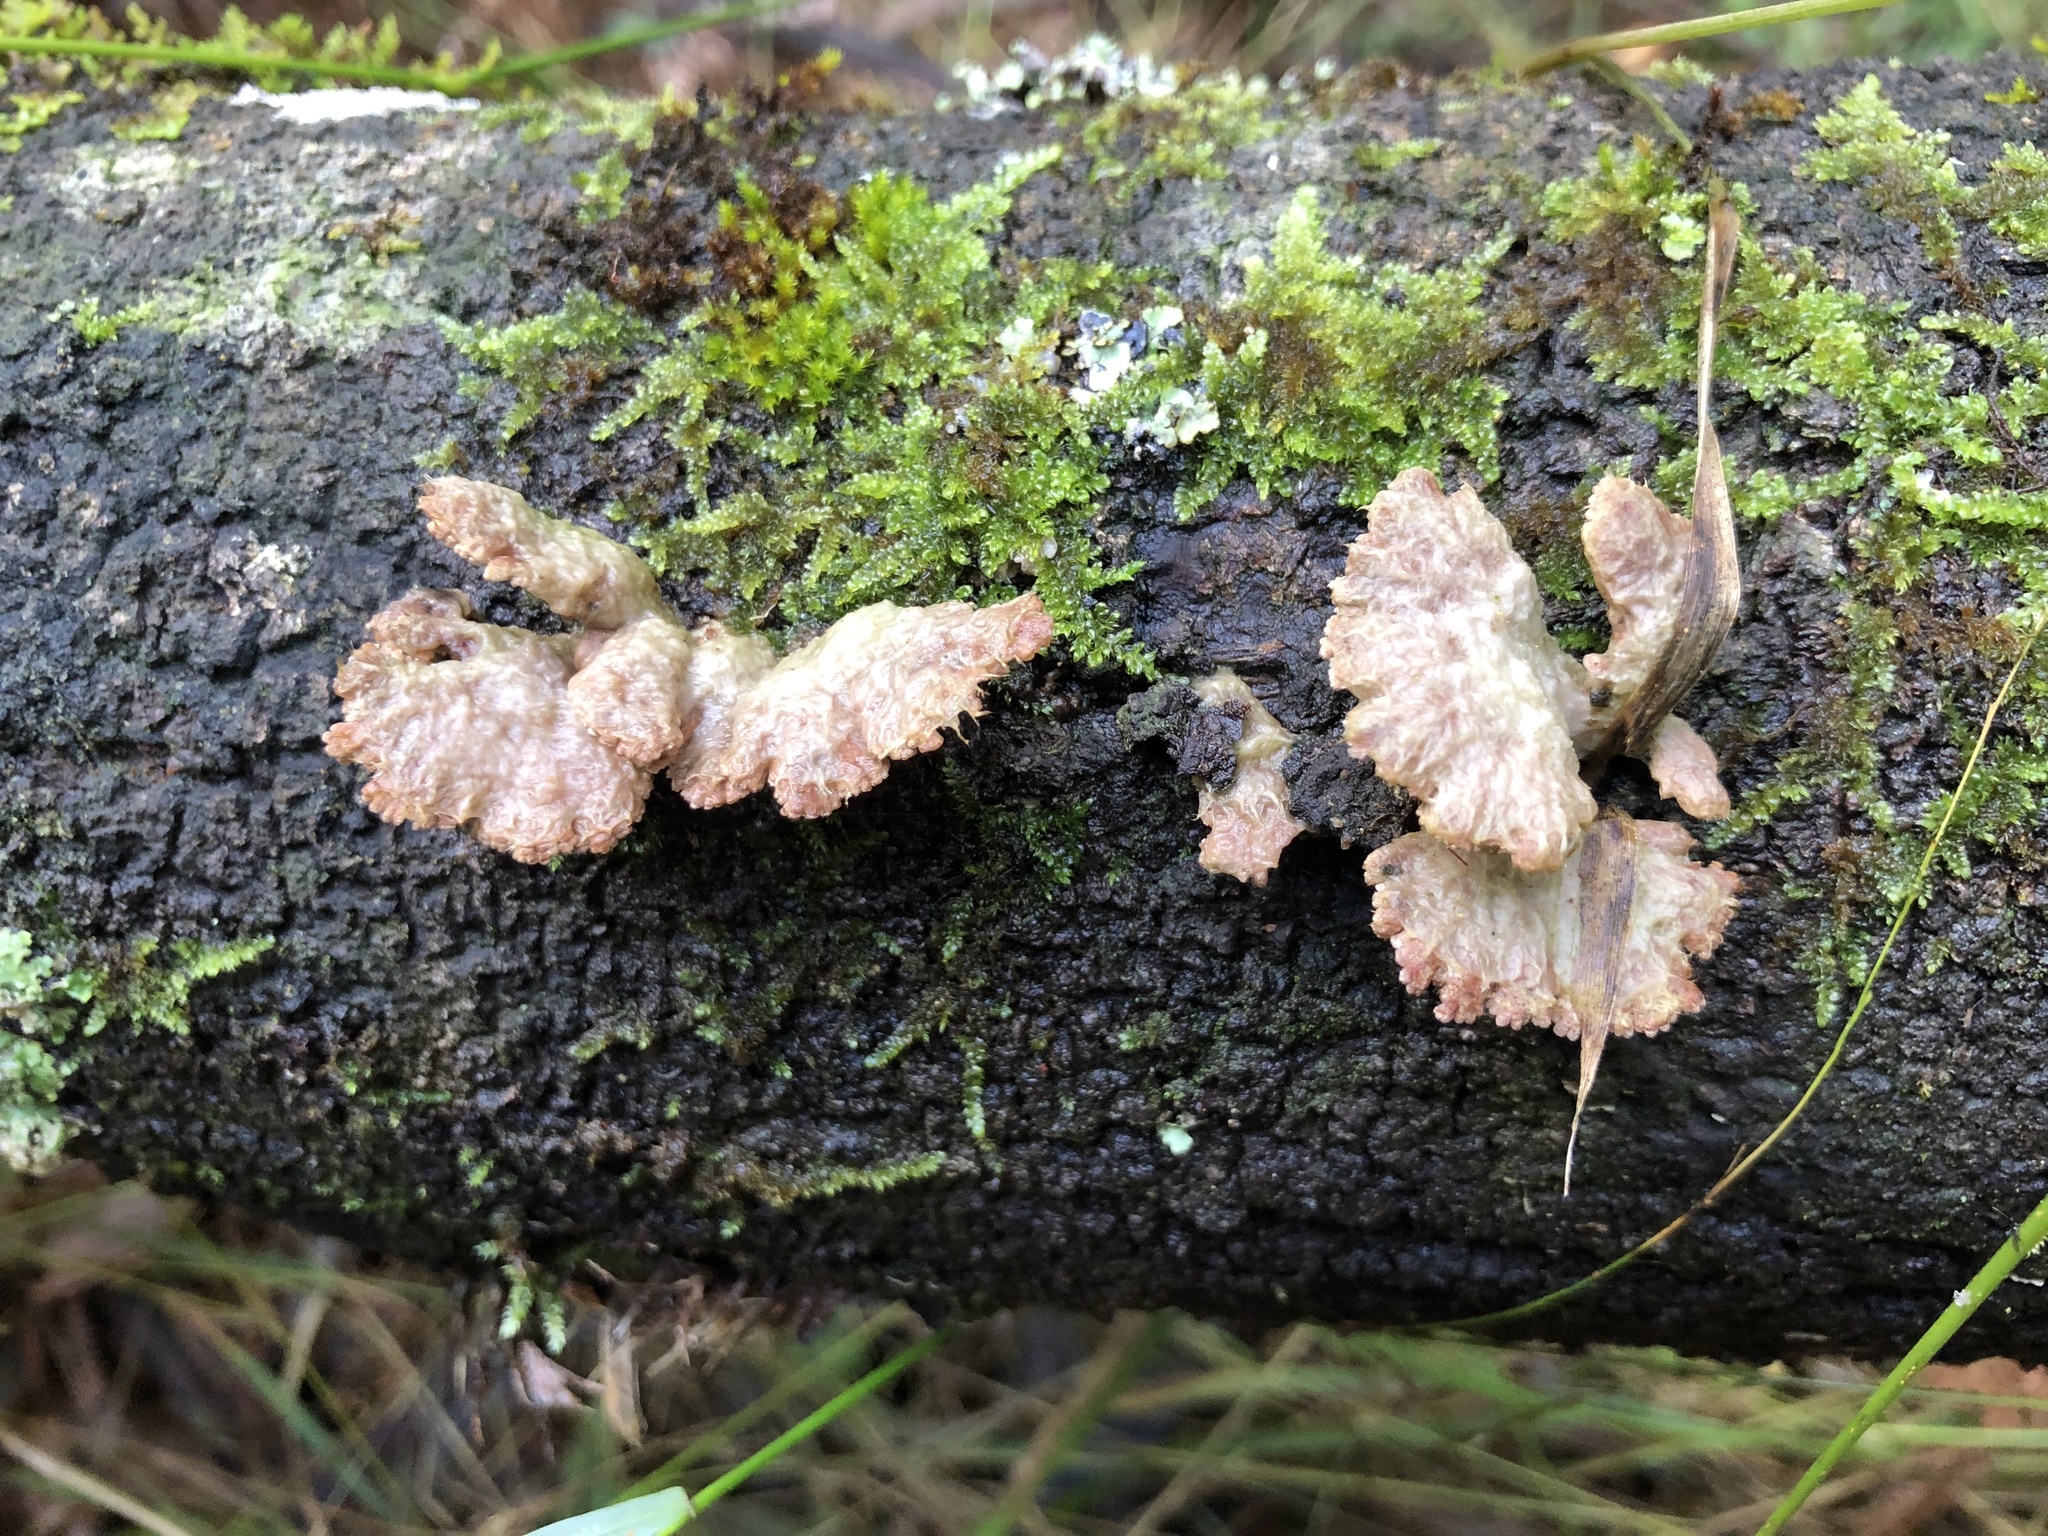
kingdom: Fungi
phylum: Basidiomycota
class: Agaricomycetes
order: Agaricales
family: Schizophyllaceae
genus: Schizophyllum
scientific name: Schizophyllum commune
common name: Common porecrust
